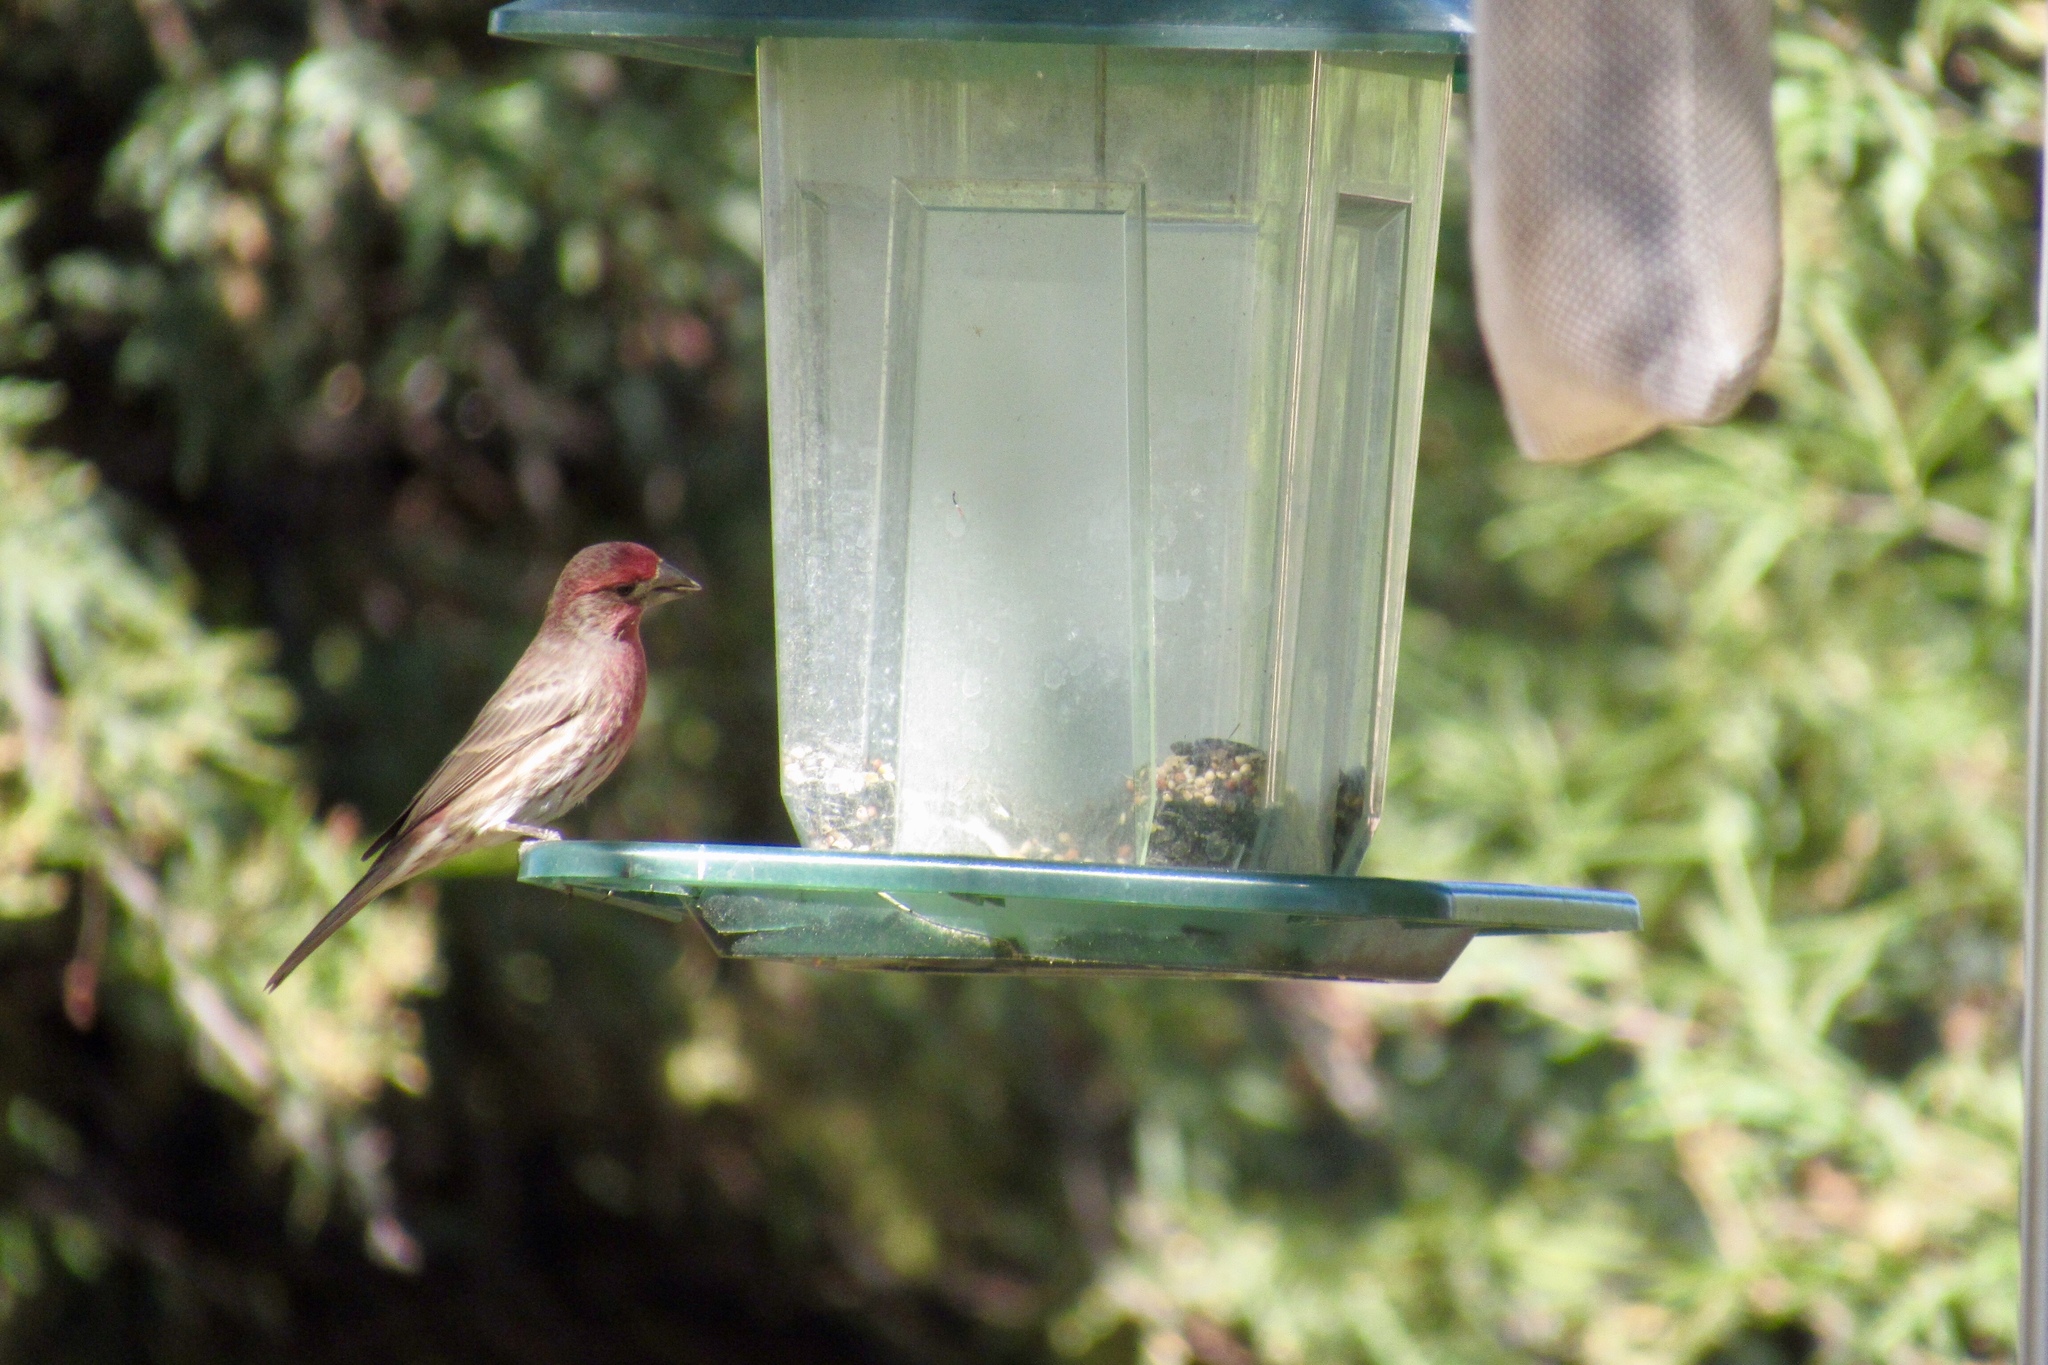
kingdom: Animalia
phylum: Chordata
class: Aves
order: Passeriformes
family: Fringillidae
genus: Haemorhous
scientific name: Haemorhous mexicanus
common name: House finch
